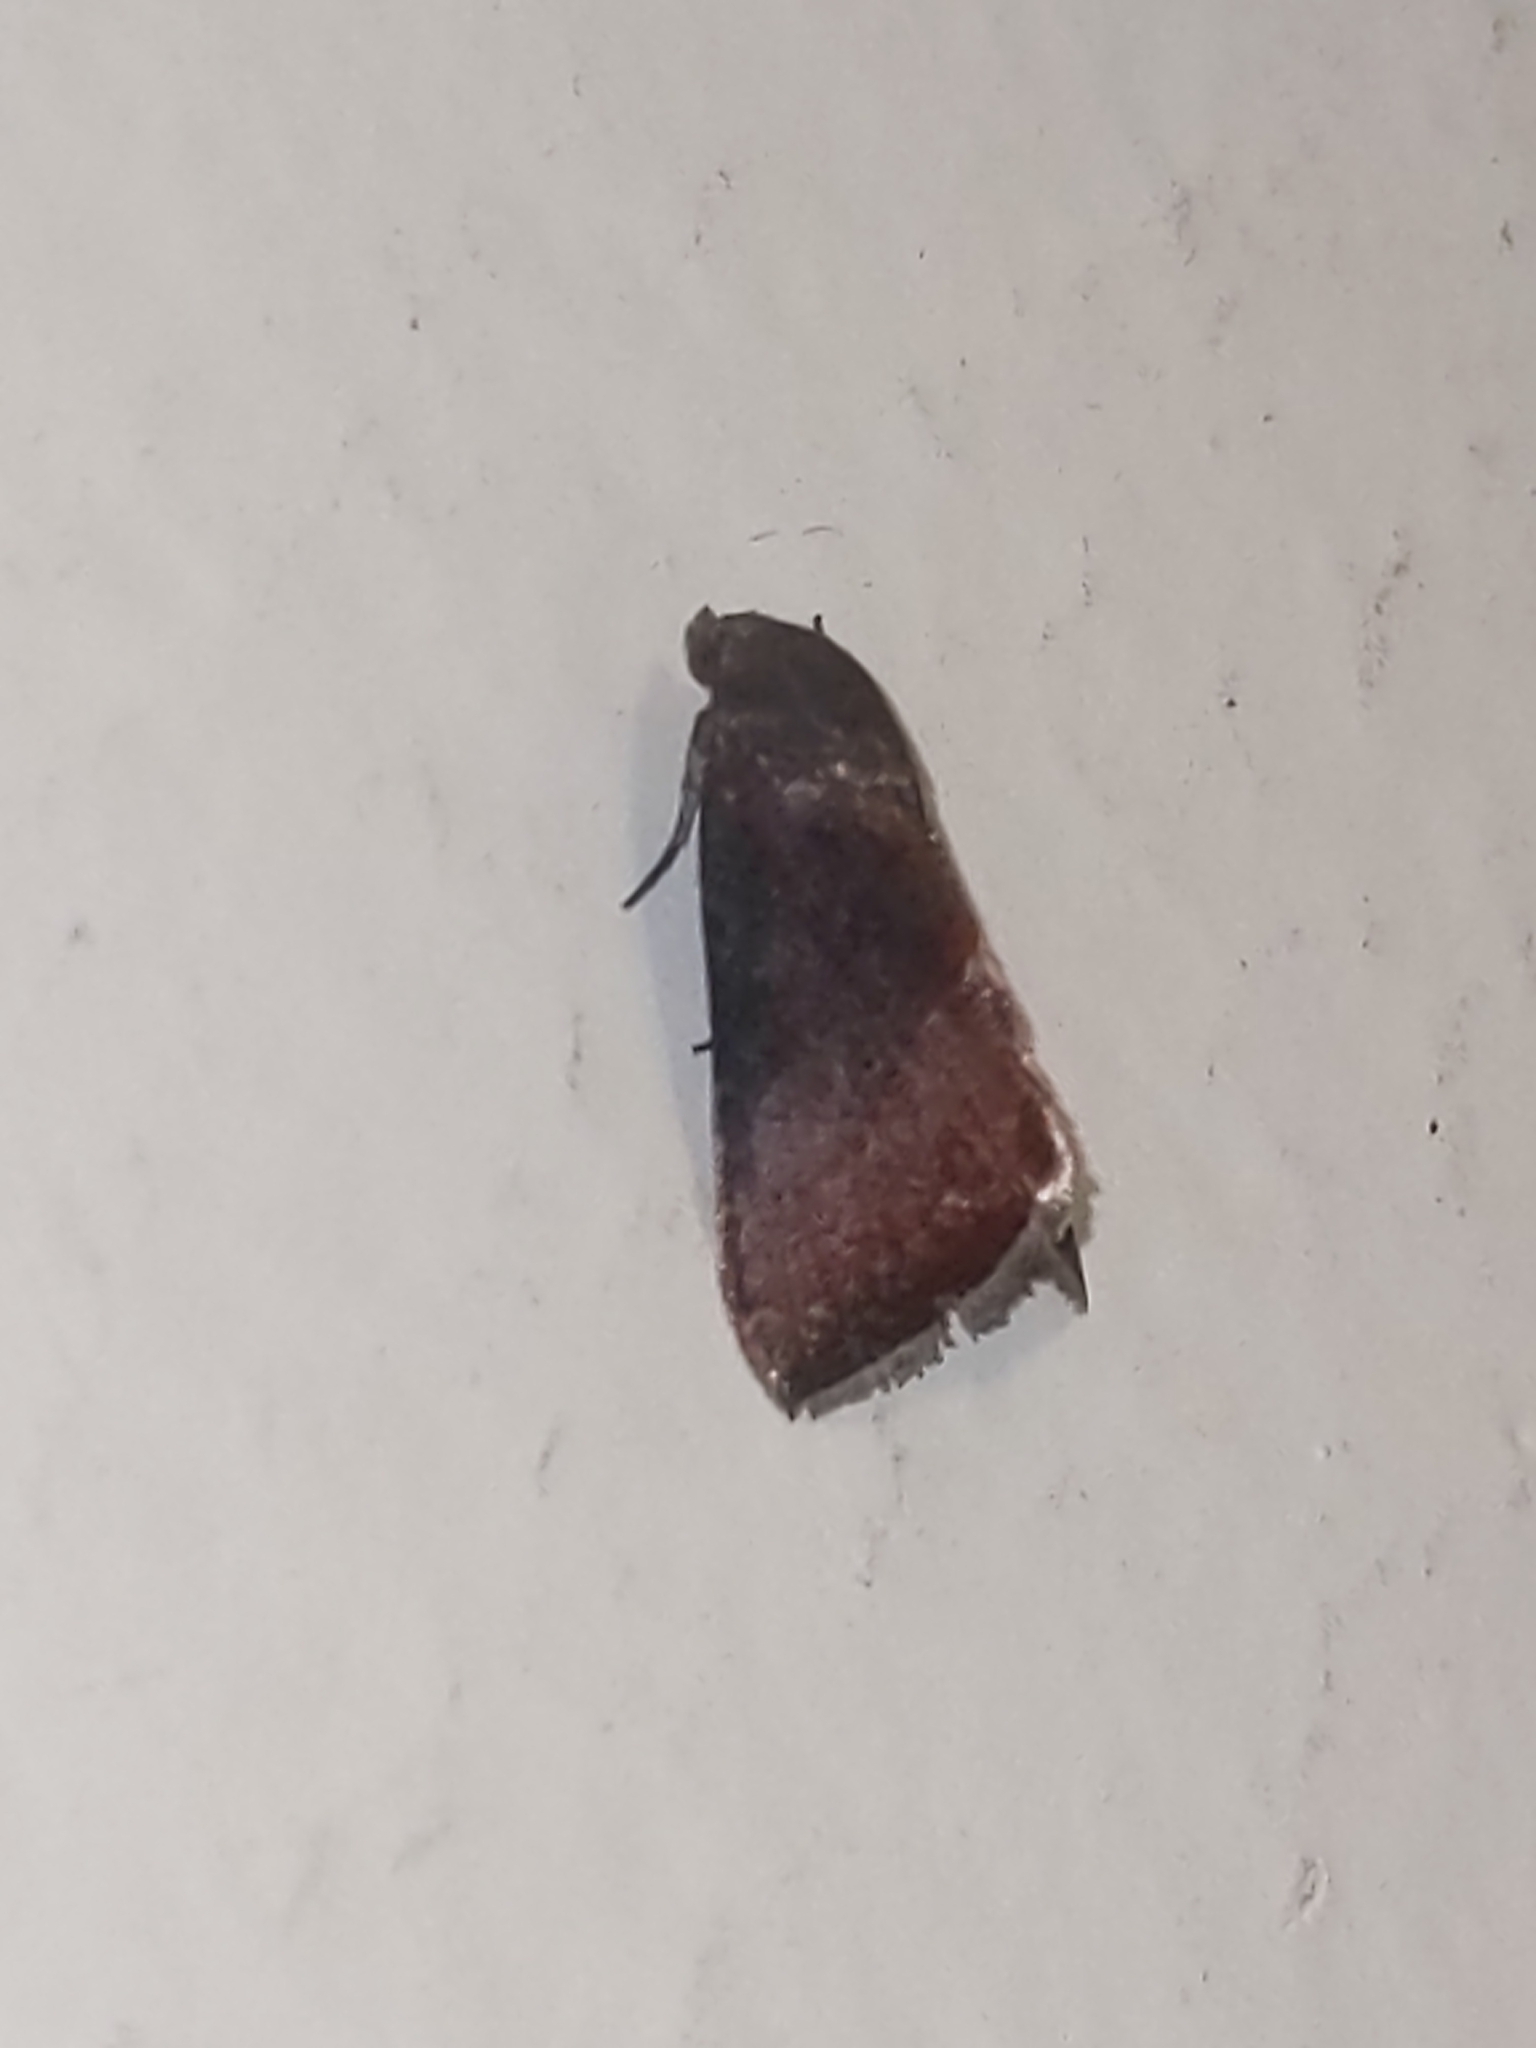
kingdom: Animalia
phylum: Arthropoda
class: Insecta
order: Lepidoptera
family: Noctuidae
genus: Galgula
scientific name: Galgula partita
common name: Wedgeling
